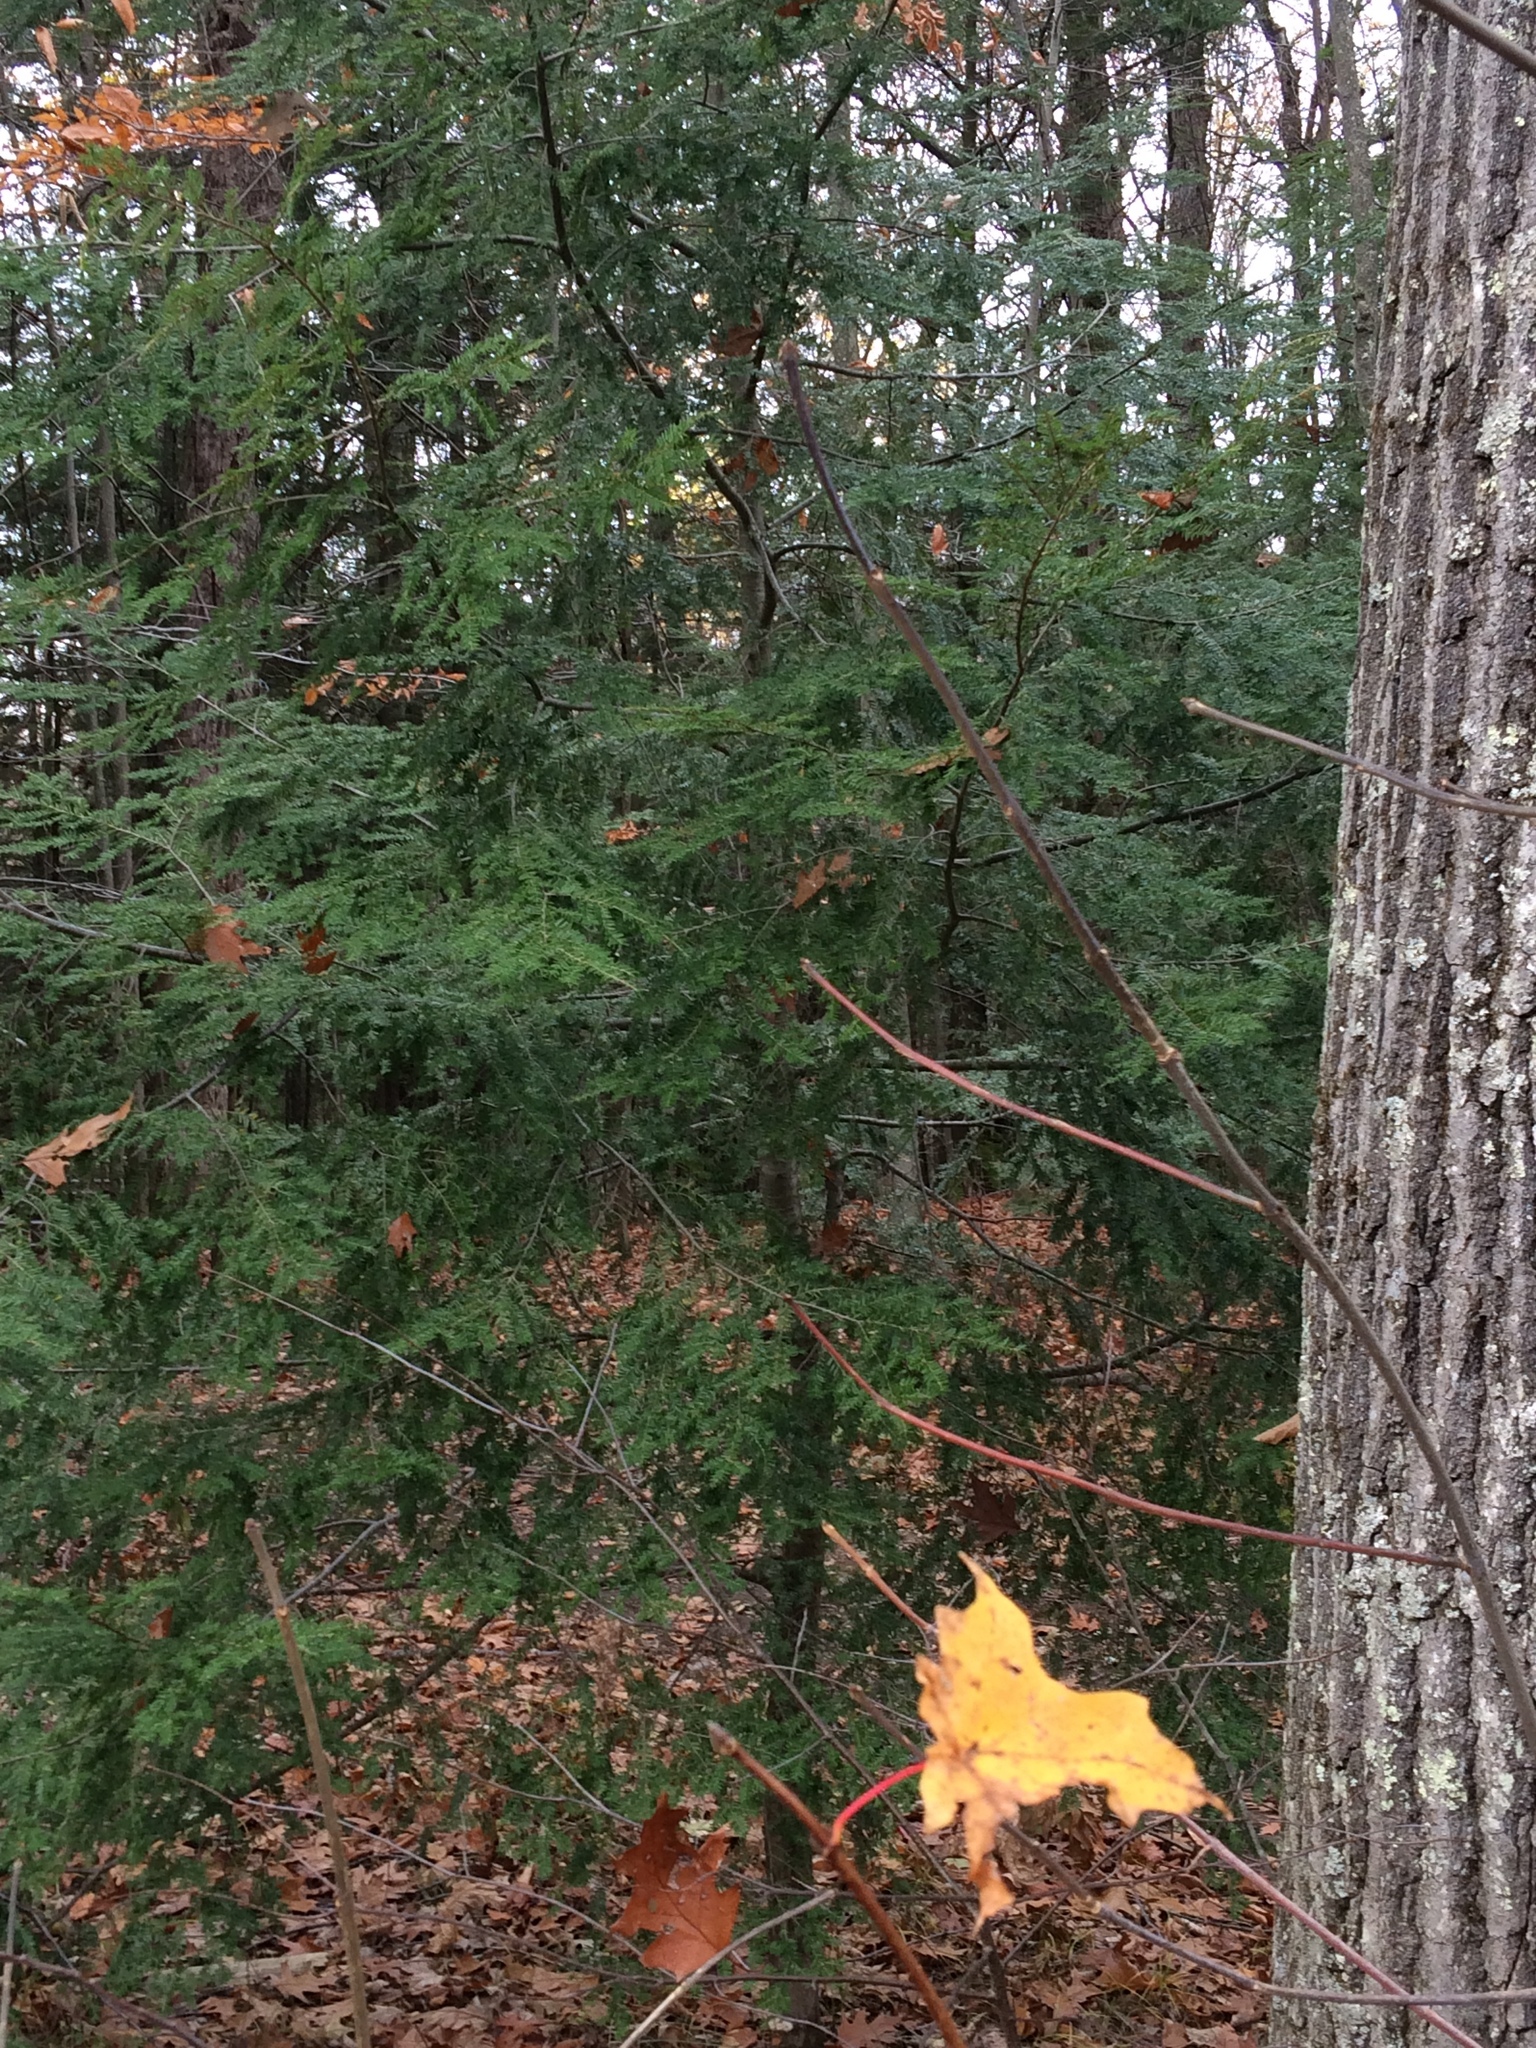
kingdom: Plantae
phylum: Tracheophyta
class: Pinopsida
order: Pinales
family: Pinaceae
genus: Tsuga
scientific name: Tsuga canadensis
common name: Eastern hemlock
